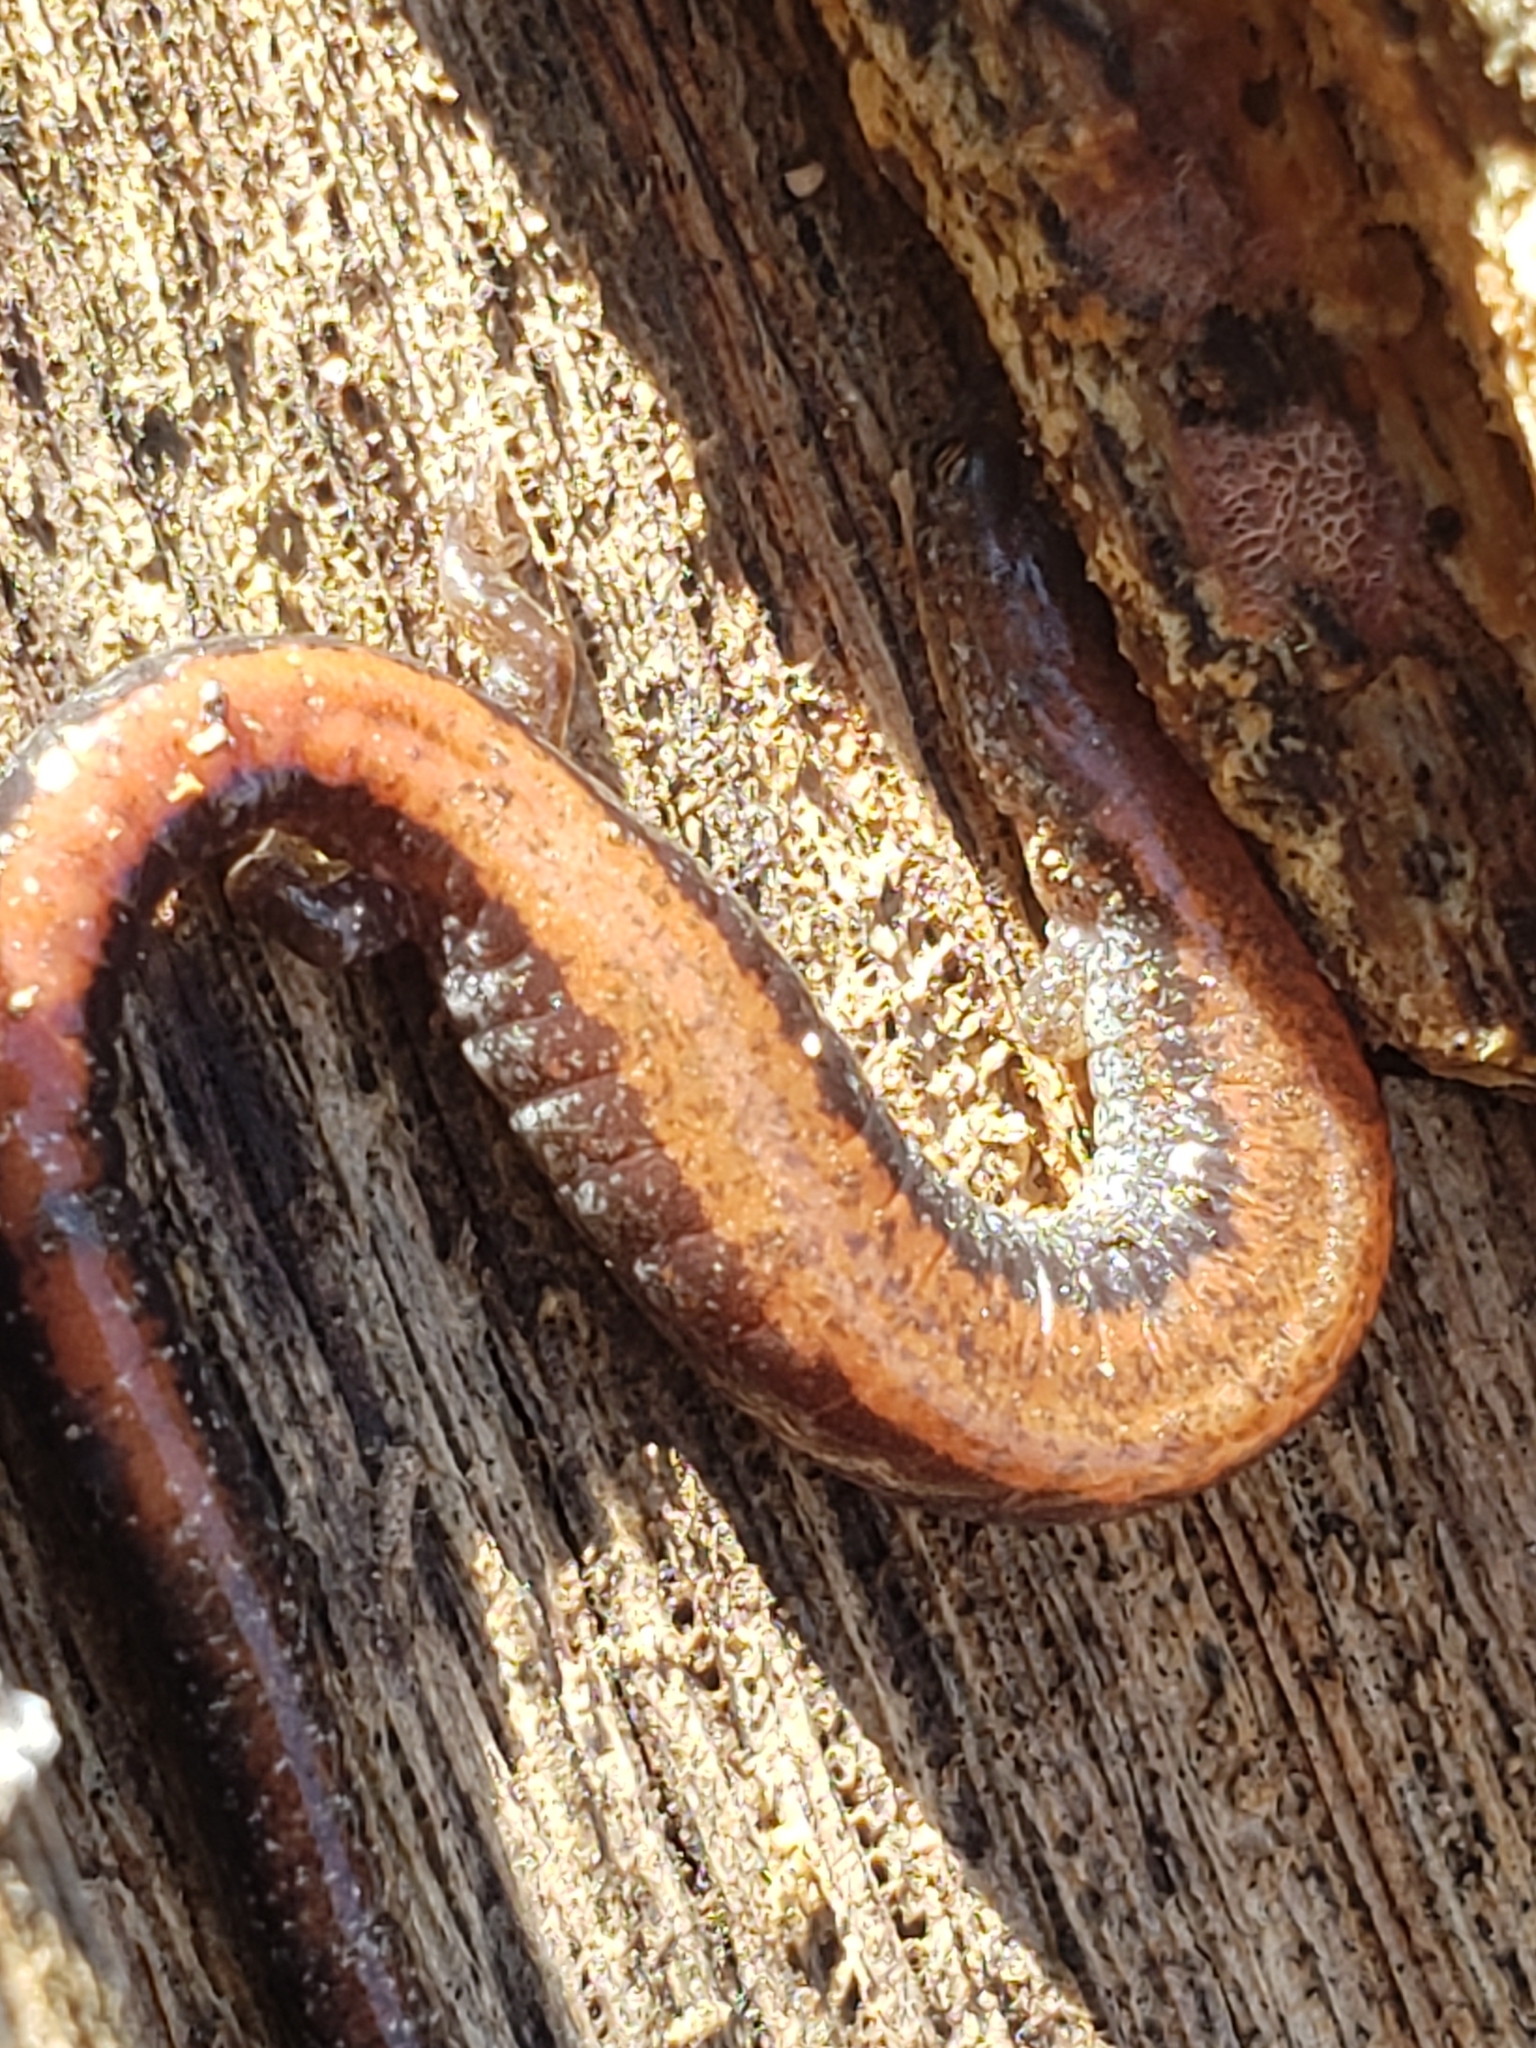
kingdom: Animalia
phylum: Chordata
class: Amphibia
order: Caudata
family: Plethodontidae
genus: Plethodon
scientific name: Plethodon cinereus
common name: Redback salamander
